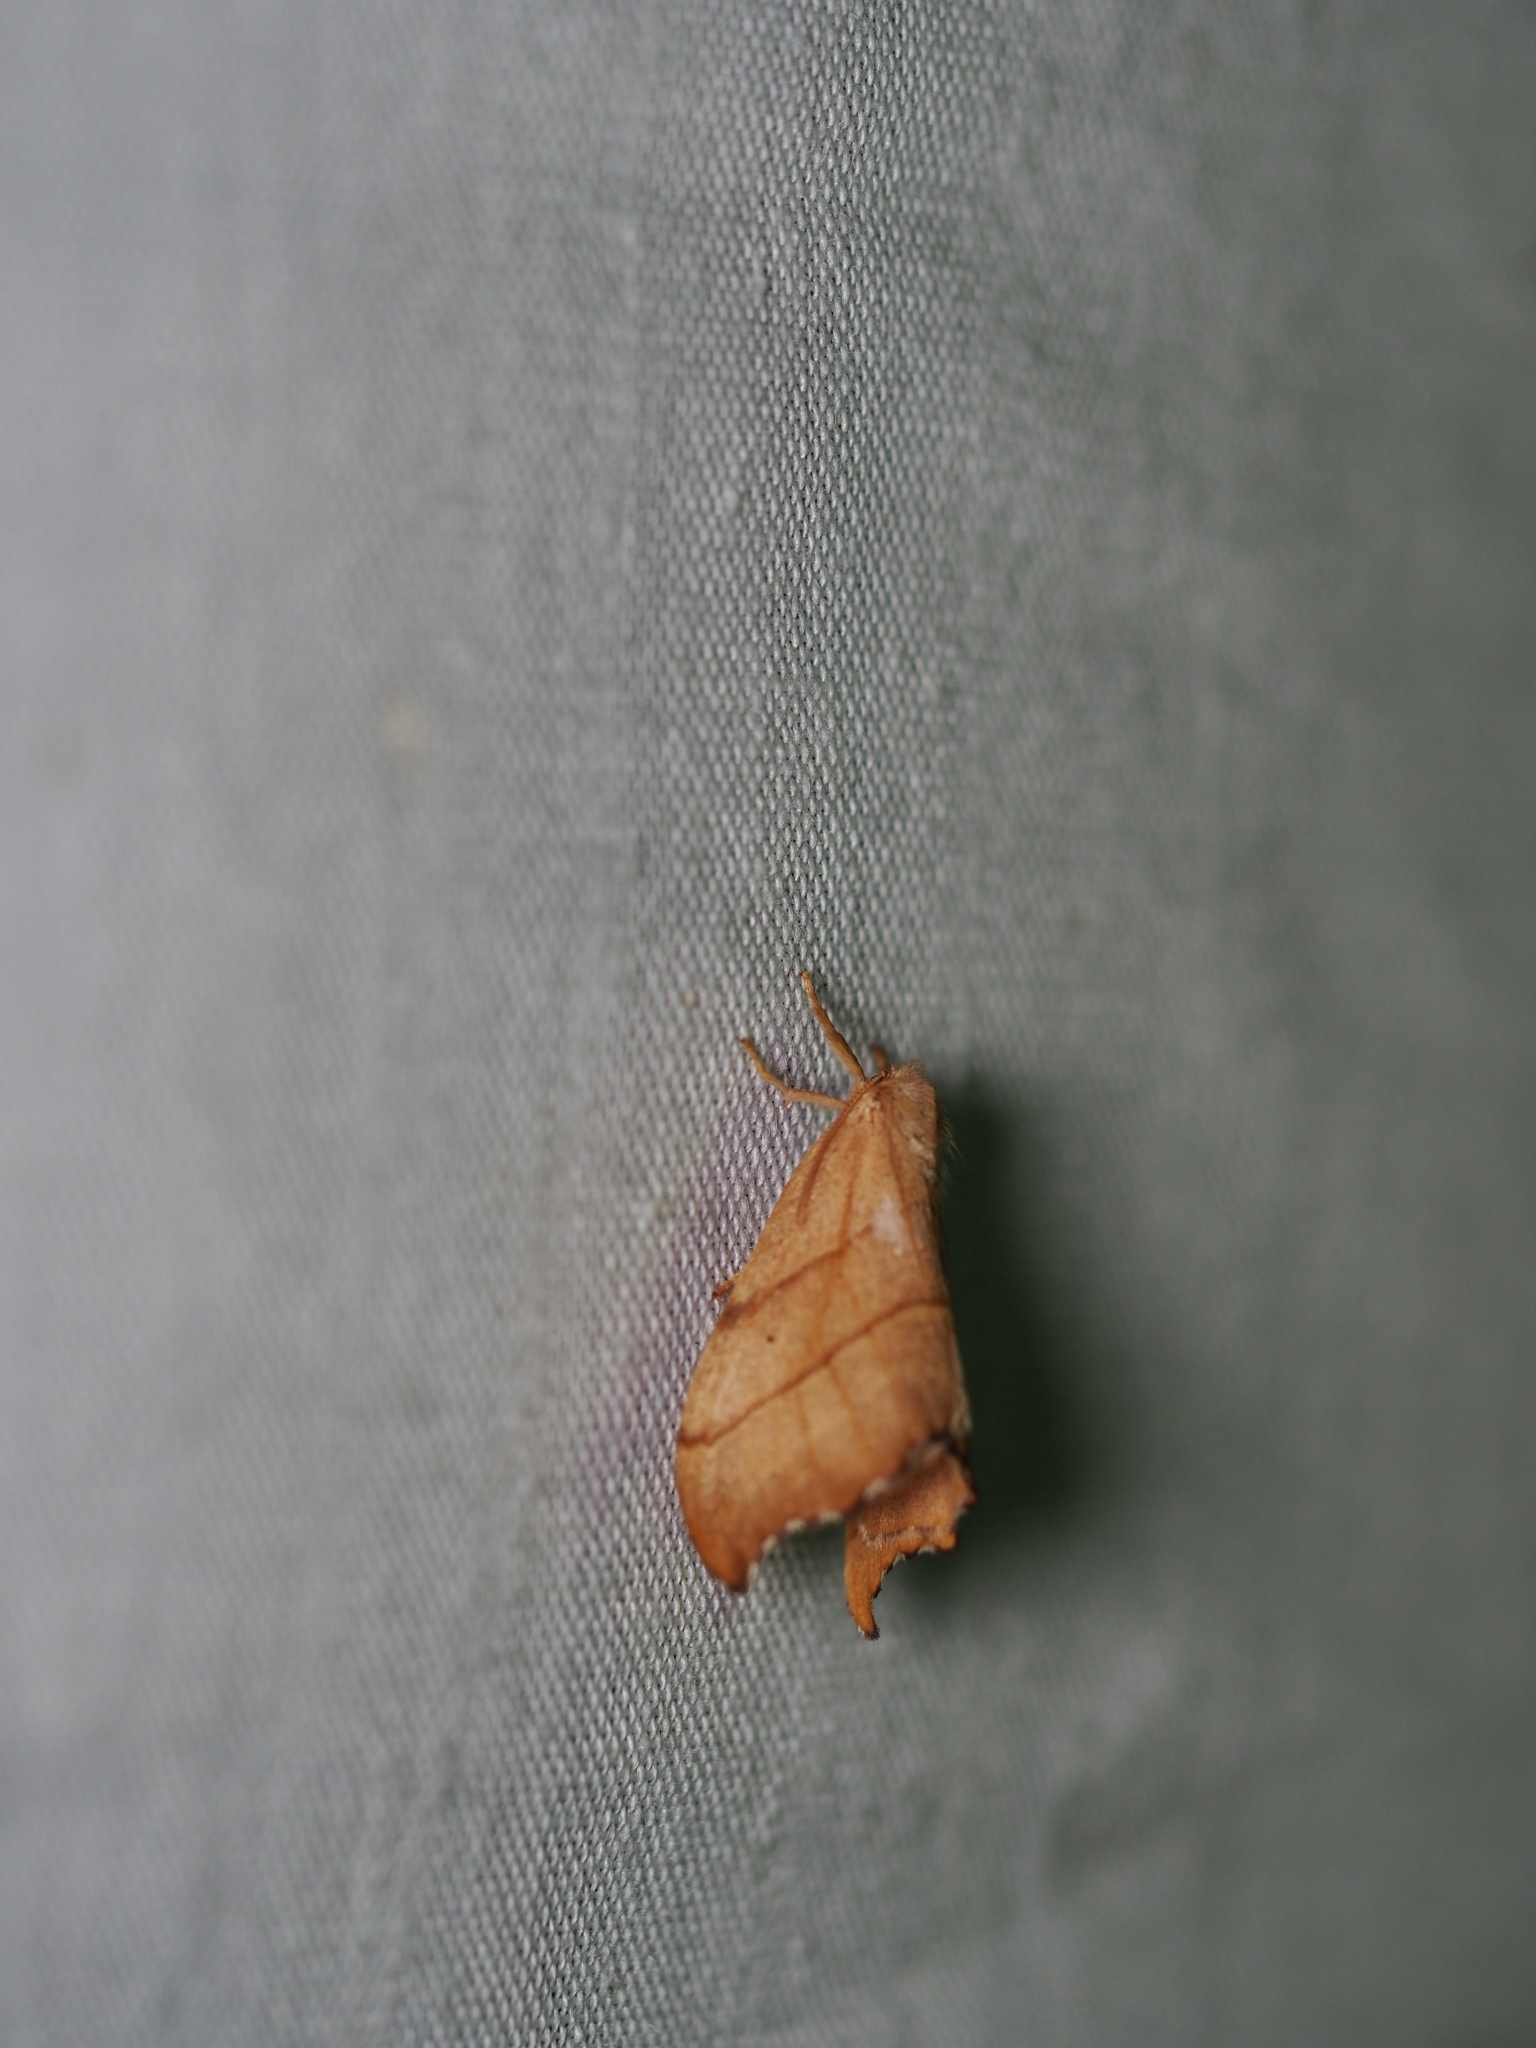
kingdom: Animalia
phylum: Arthropoda
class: Insecta
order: Lepidoptera
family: Drepanidae
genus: Falcaria
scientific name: Falcaria lacertinaria
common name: Scalloped hook-tip
